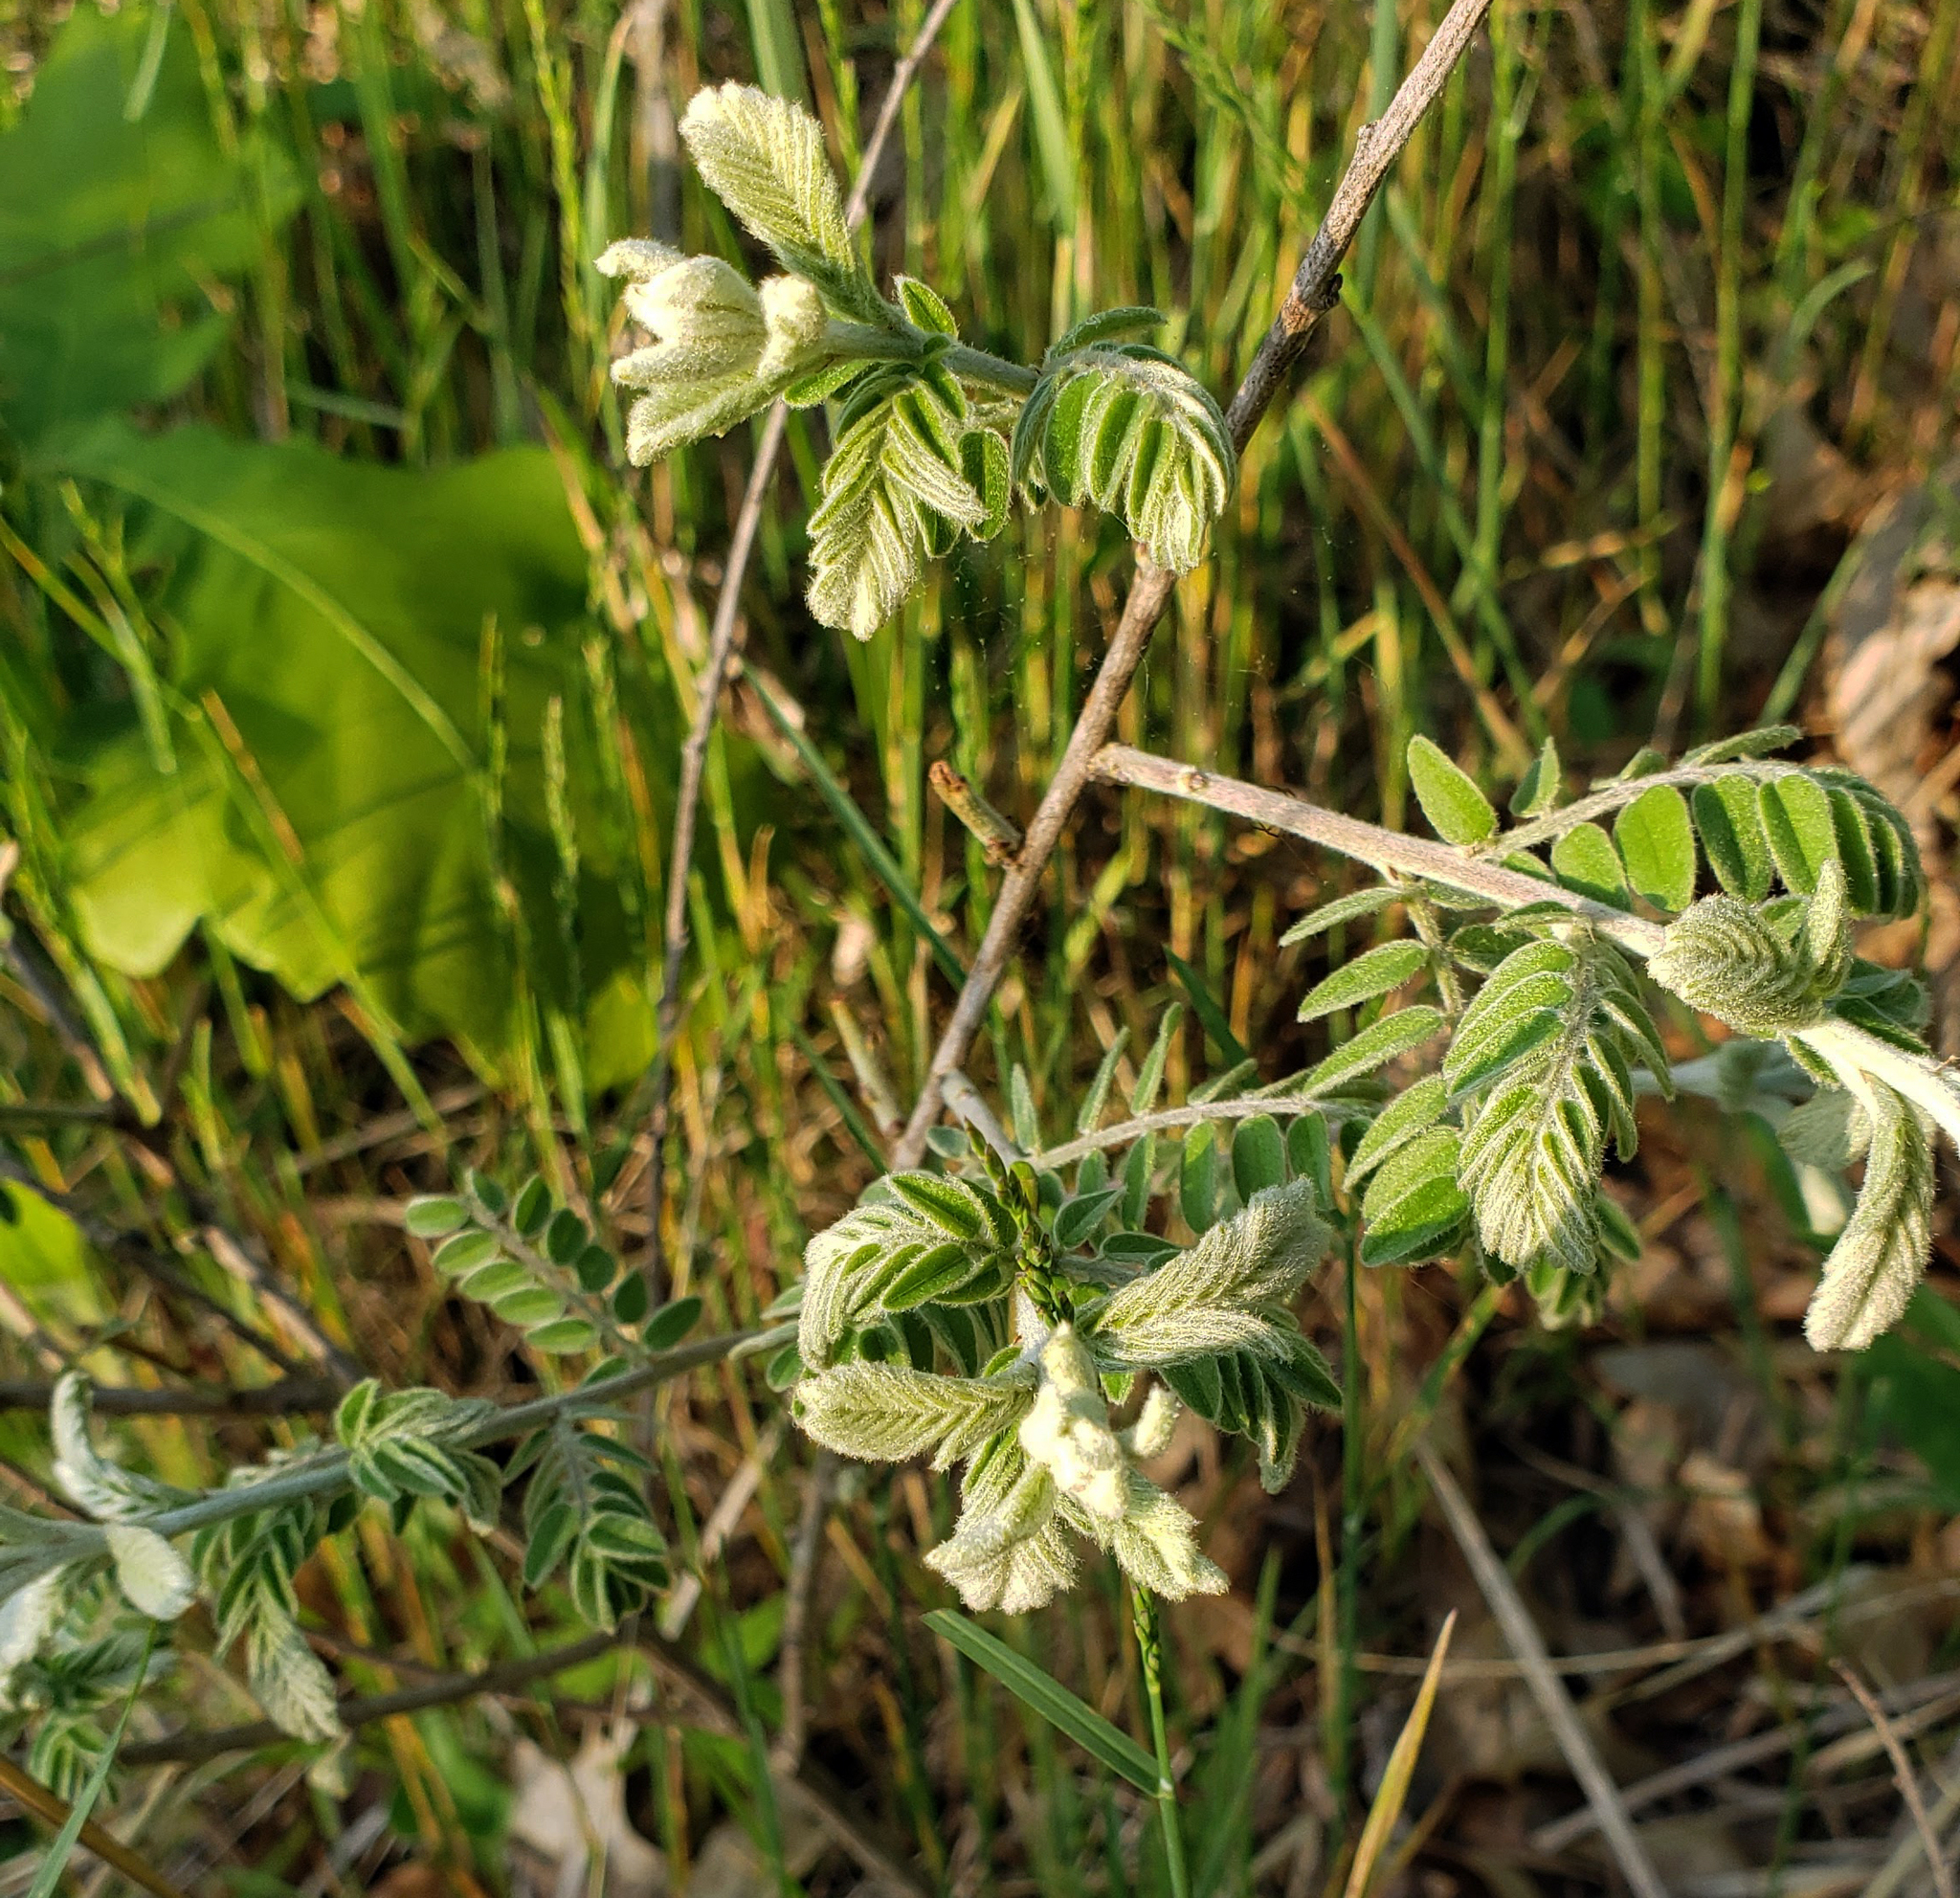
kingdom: Plantae
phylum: Tracheophyta
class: Magnoliopsida
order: Fabales
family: Fabaceae
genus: Amorpha
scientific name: Amorpha canescens
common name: Leadplant
